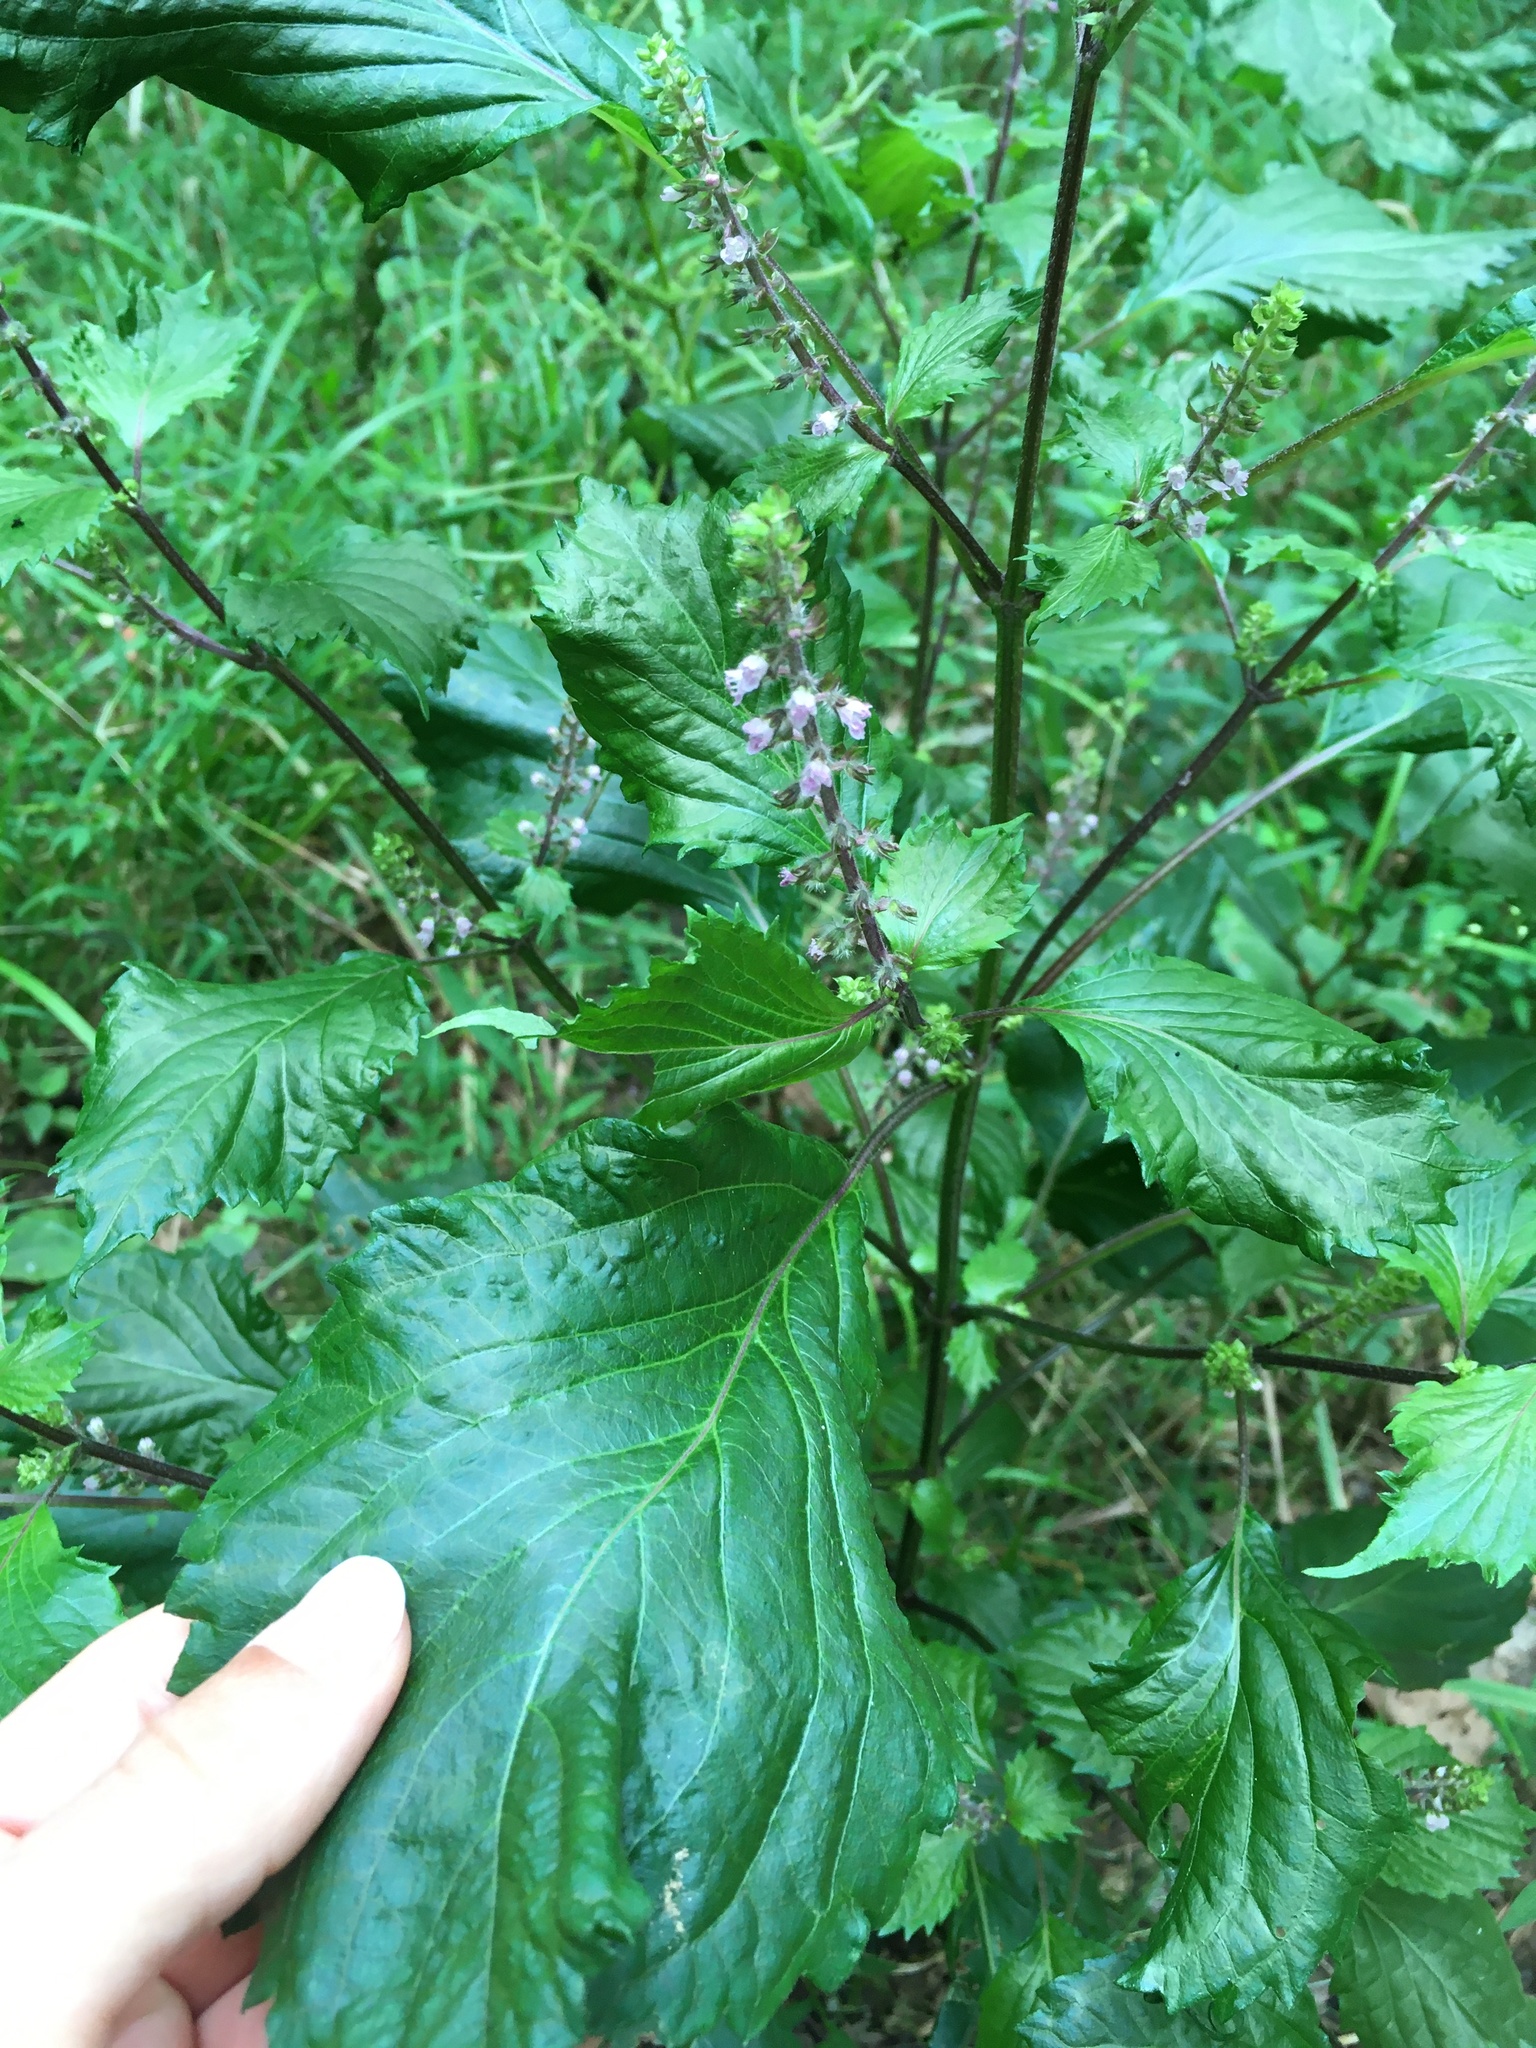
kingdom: Plantae
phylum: Tracheophyta
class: Magnoliopsida
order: Lamiales
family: Lamiaceae
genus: Perilla
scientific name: Perilla frutescens
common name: Perilla
